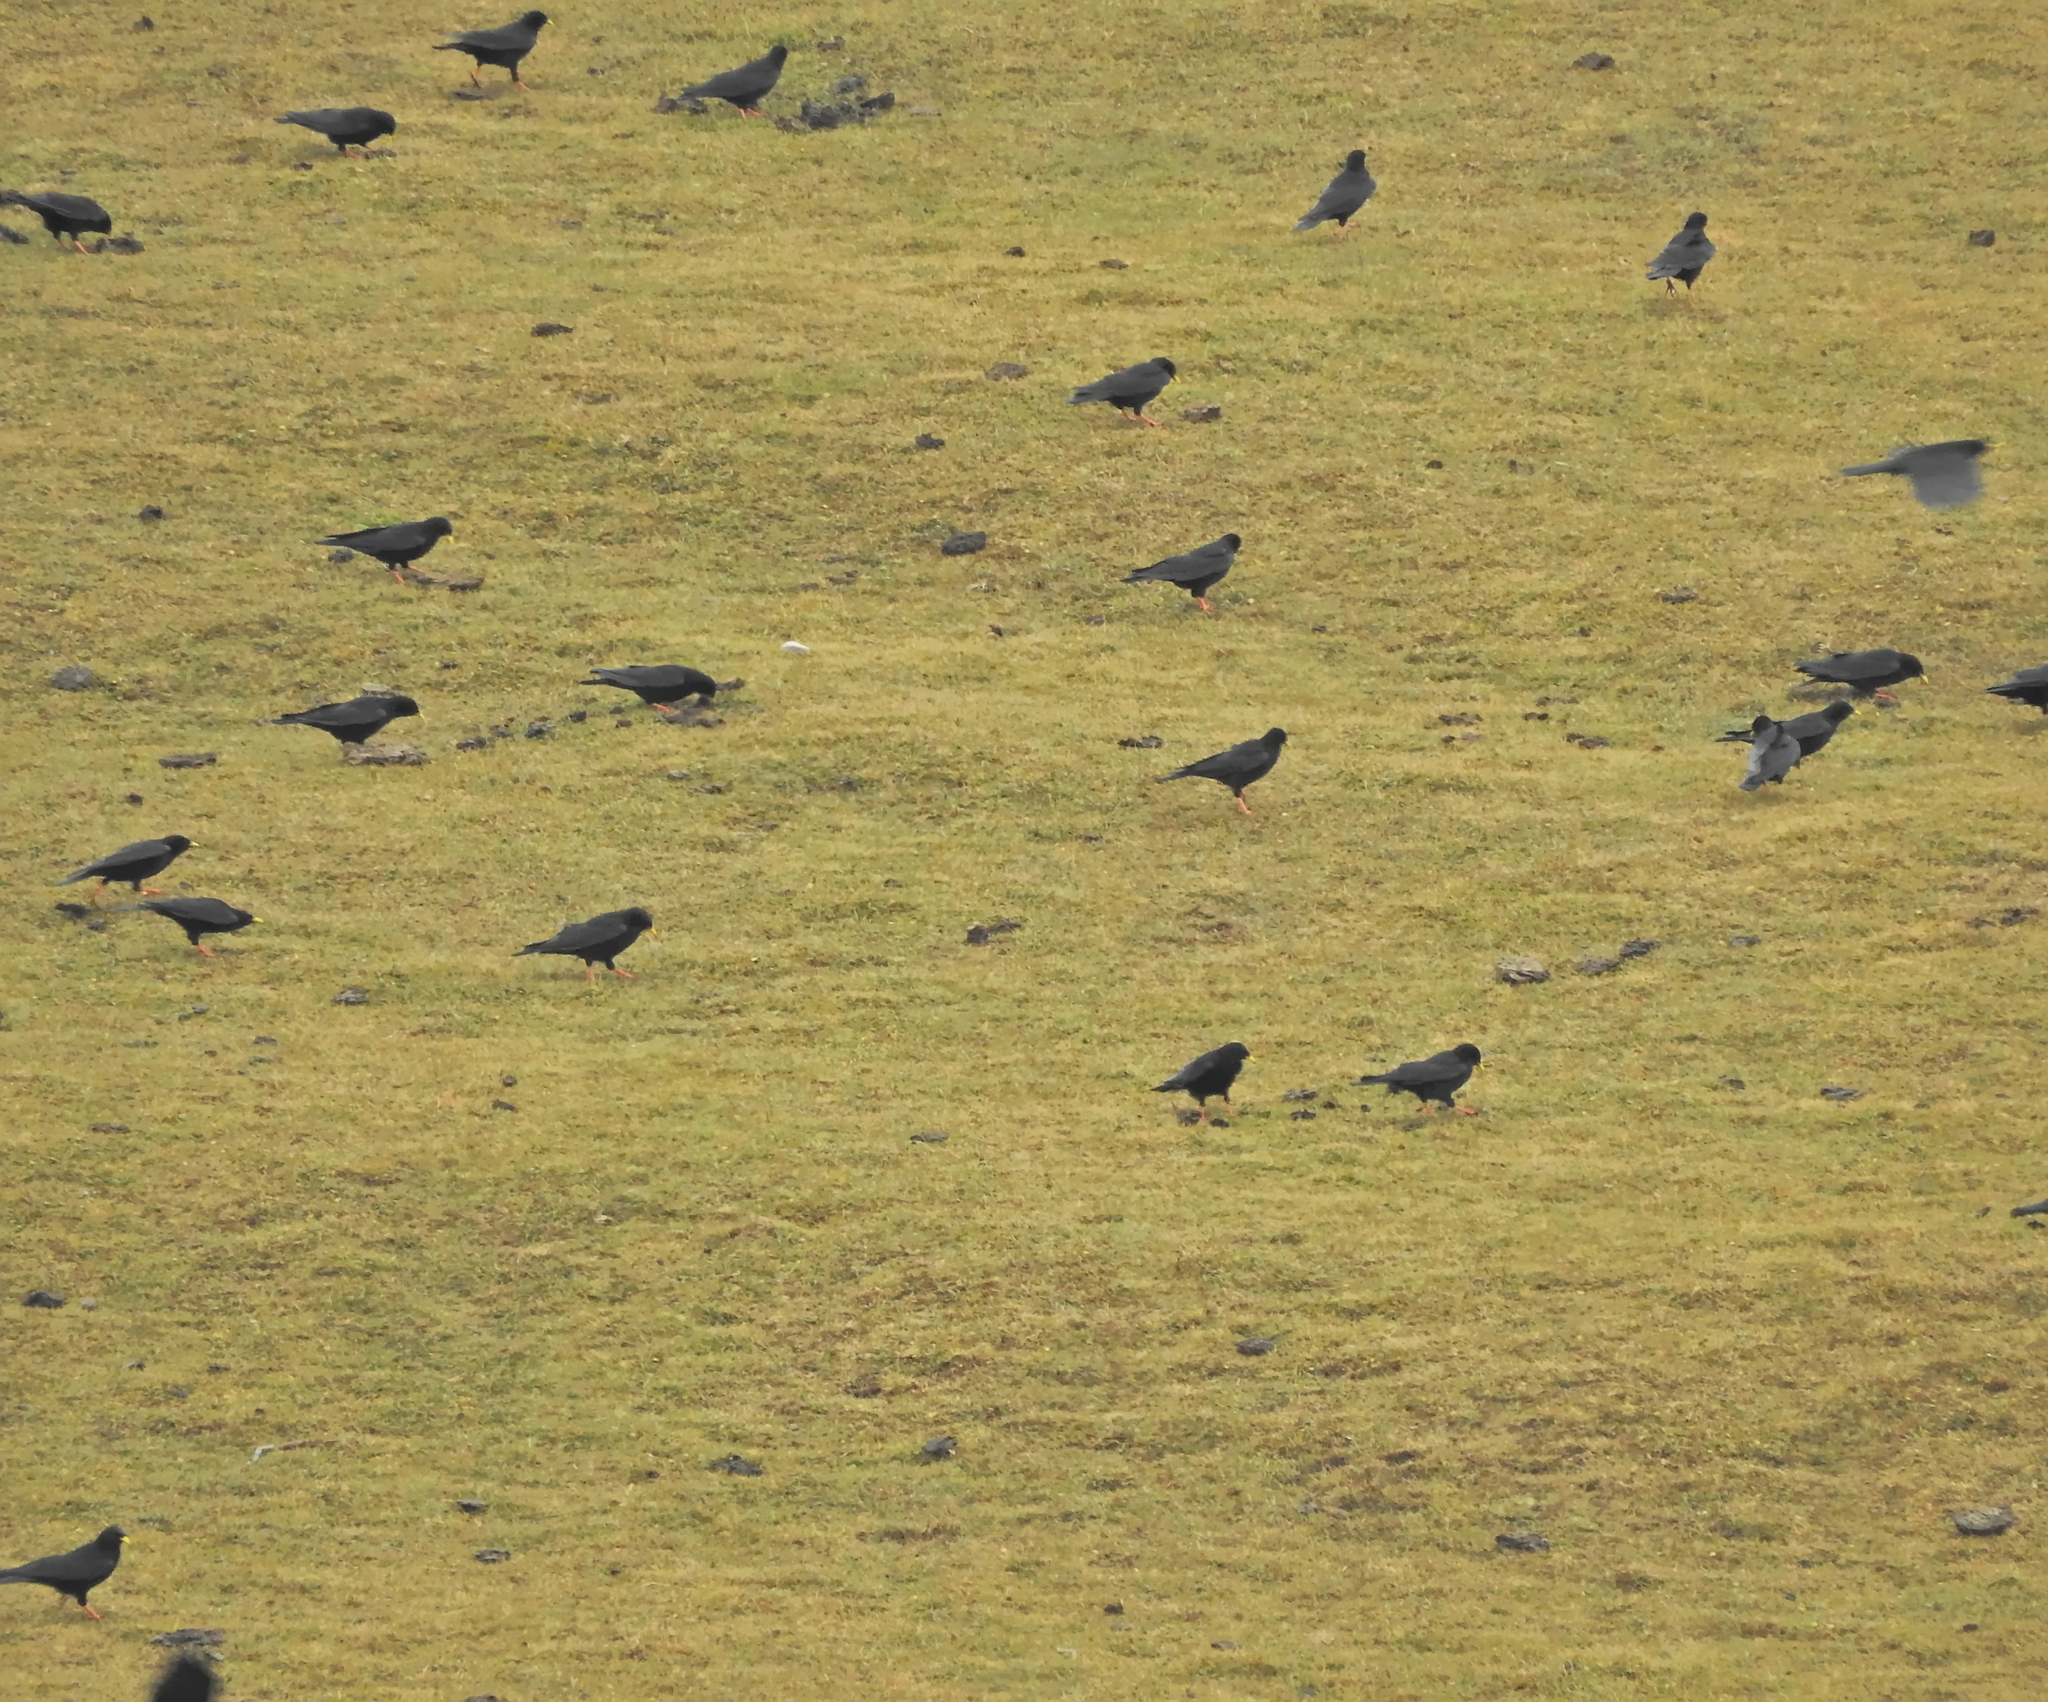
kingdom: Animalia
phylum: Chordata
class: Aves
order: Passeriformes
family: Corvidae
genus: Pyrrhocorax
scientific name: Pyrrhocorax graculus
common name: Alpine chough
